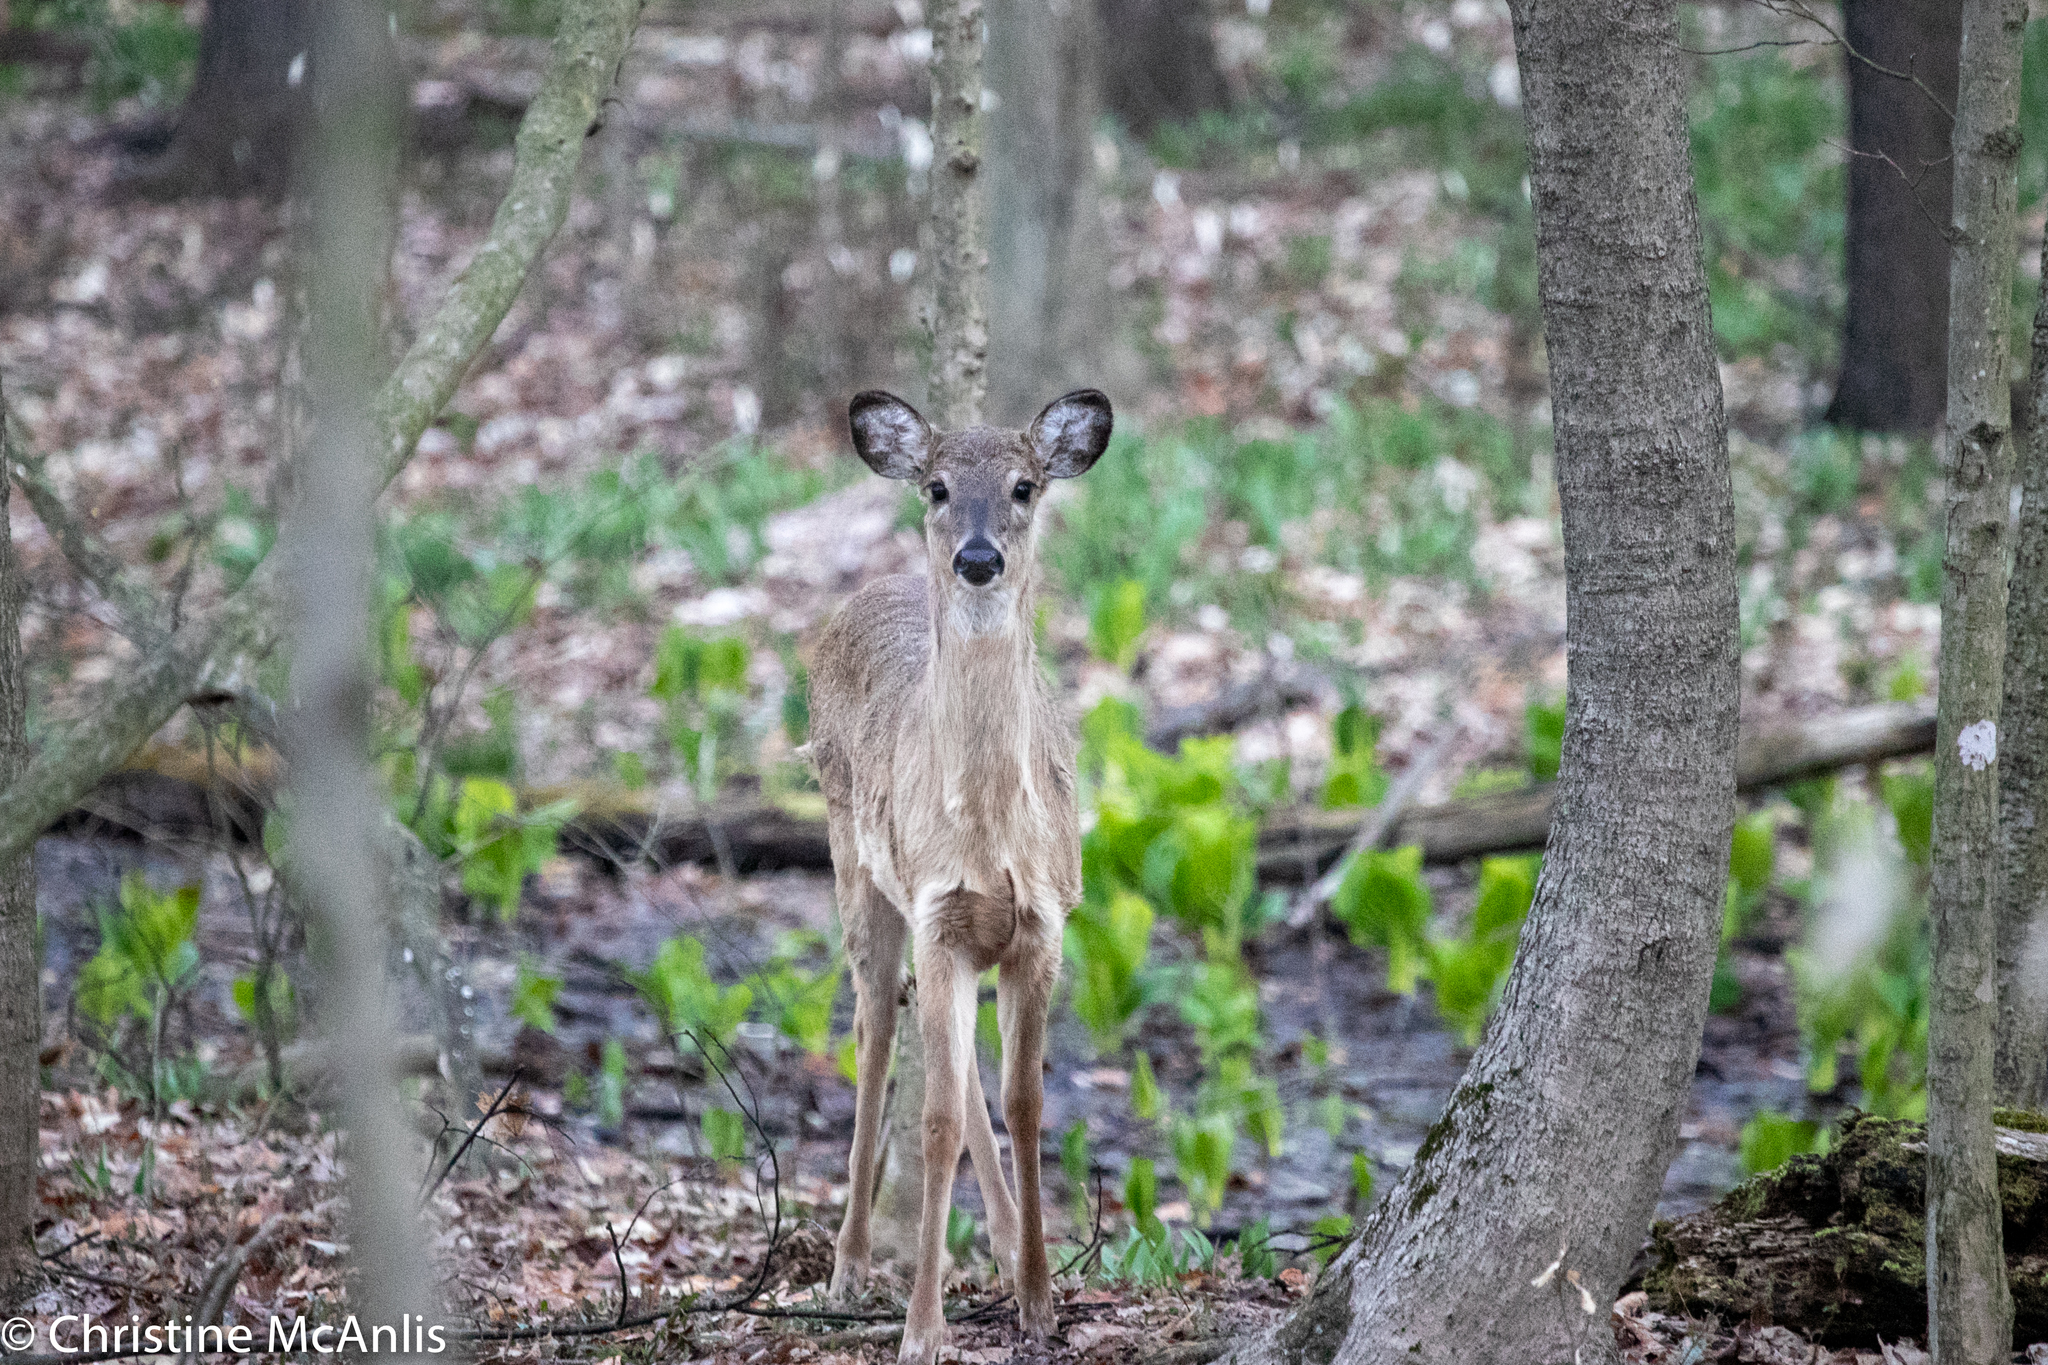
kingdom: Animalia
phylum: Chordata
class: Mammalia
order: Artiodactyla
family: Cervidae
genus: Odocoileus
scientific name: Odocoileus virginianus
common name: White-tailed deer
